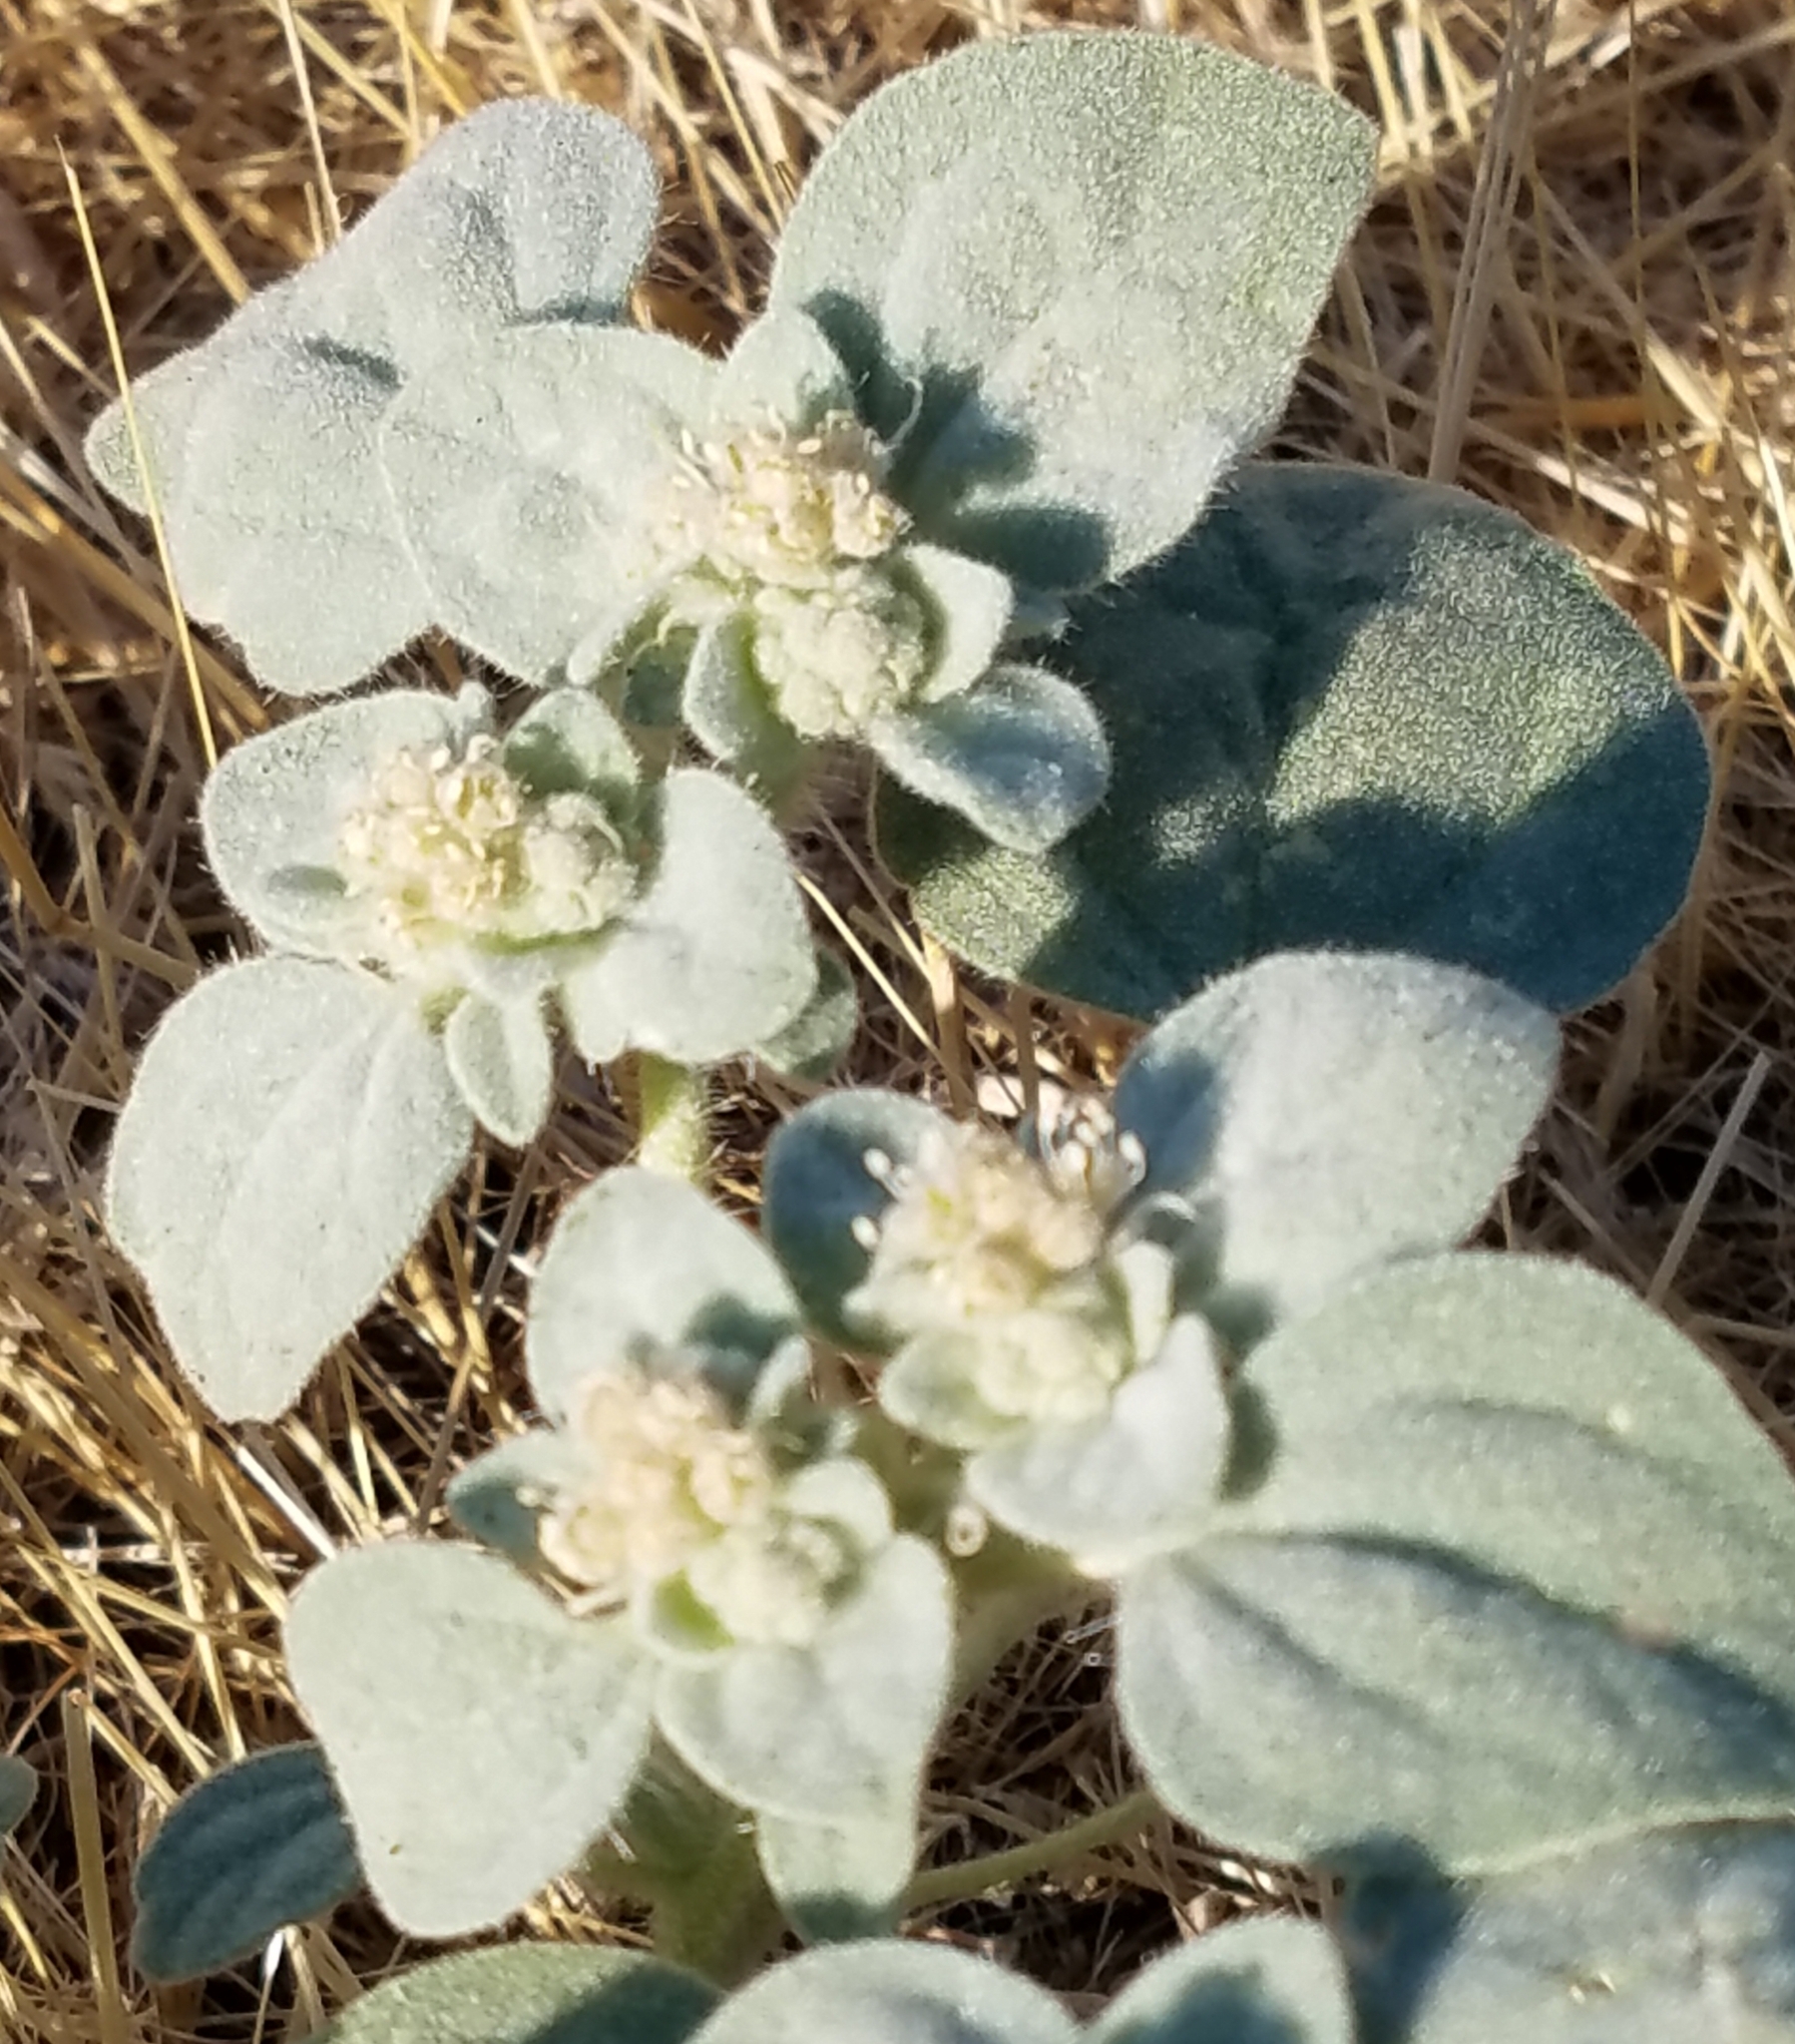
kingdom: Plantae
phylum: Tracheophyta
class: Magnoliopsida
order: Malpighiales
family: Euphorbiaceae
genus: Croton
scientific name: Croton setiger
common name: Dove weed
